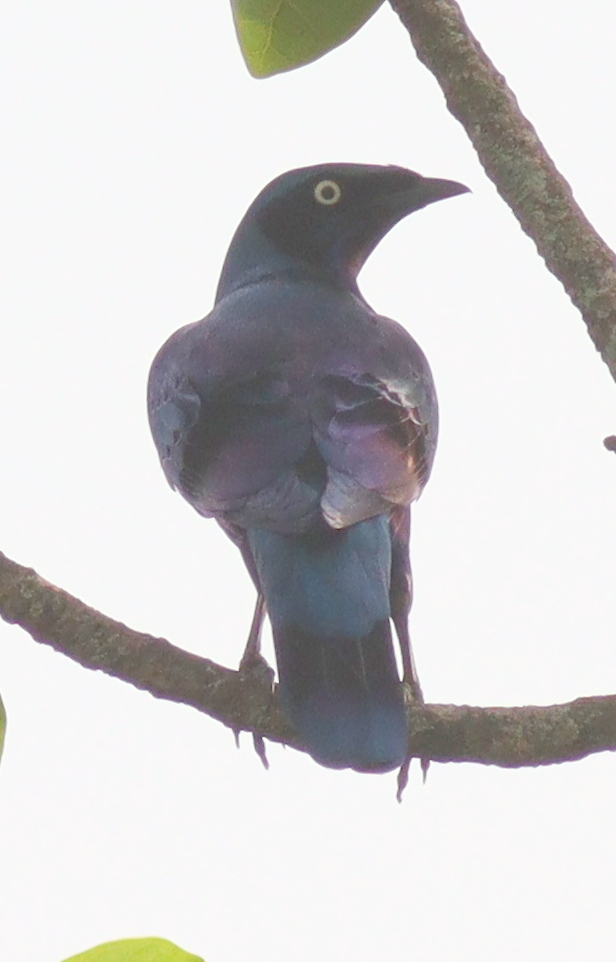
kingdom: Animalia
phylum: Chordata
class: Aves
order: Passeriformes
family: Sturnidae
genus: Lamprotornis
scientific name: Lamprotornis splendidus
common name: Splendid starling
